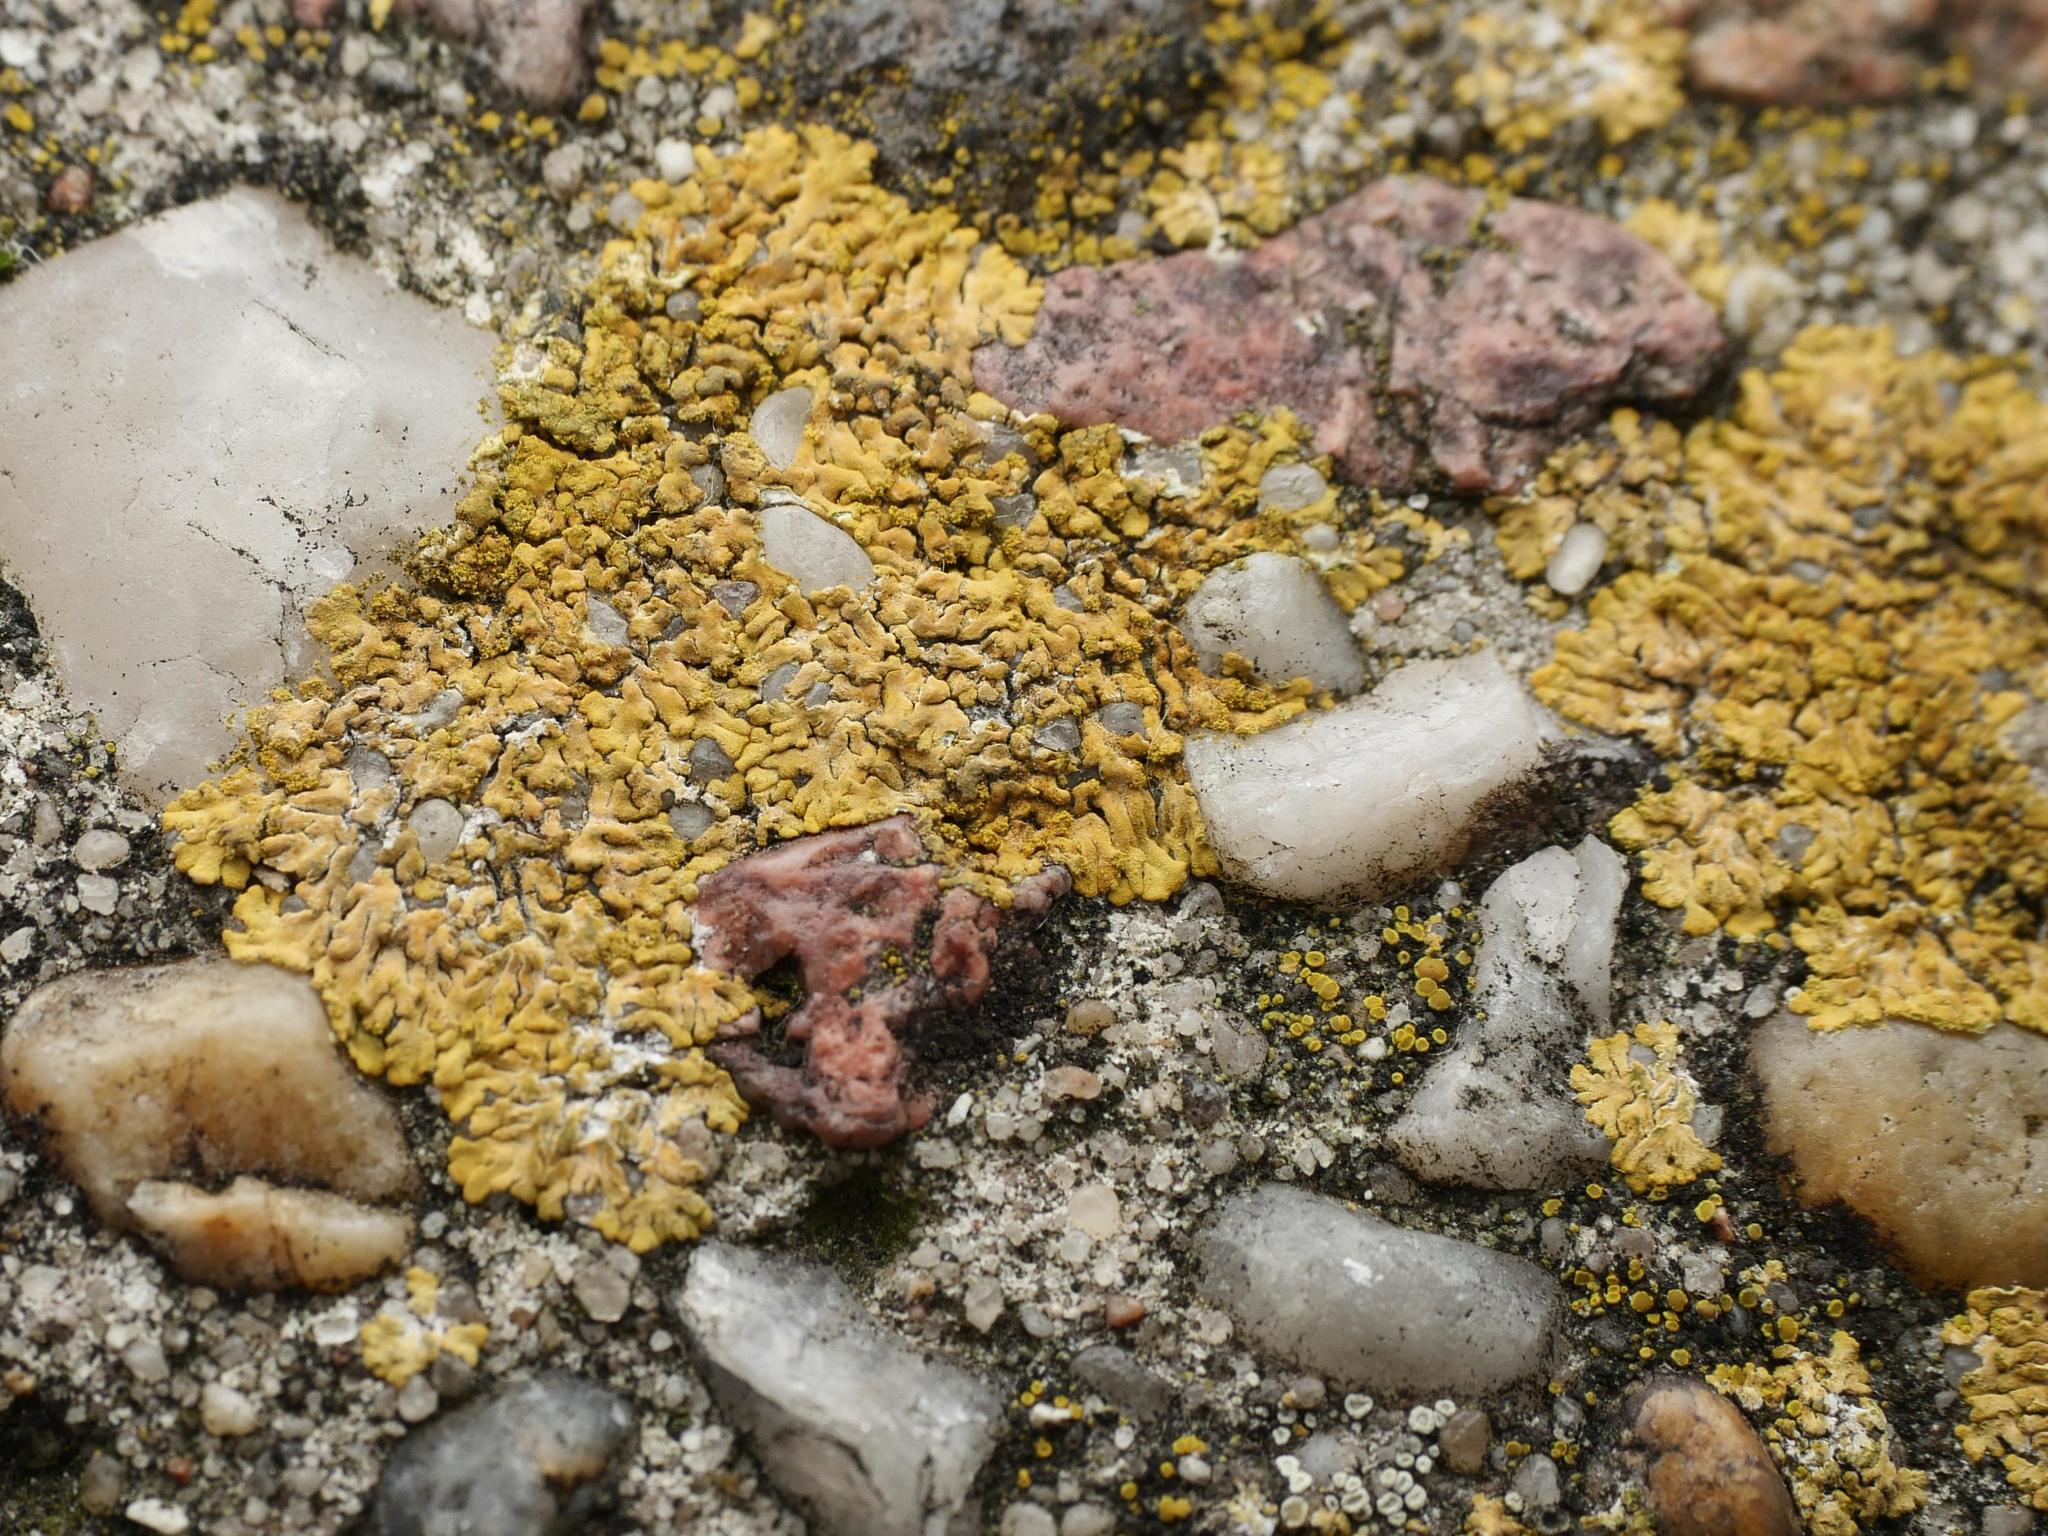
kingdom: Fungi
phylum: Ascomycota
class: Lecanoromycetes
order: Teloschistales
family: Teloschistaceae
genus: Calogaya
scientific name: Calogaya decipiens
